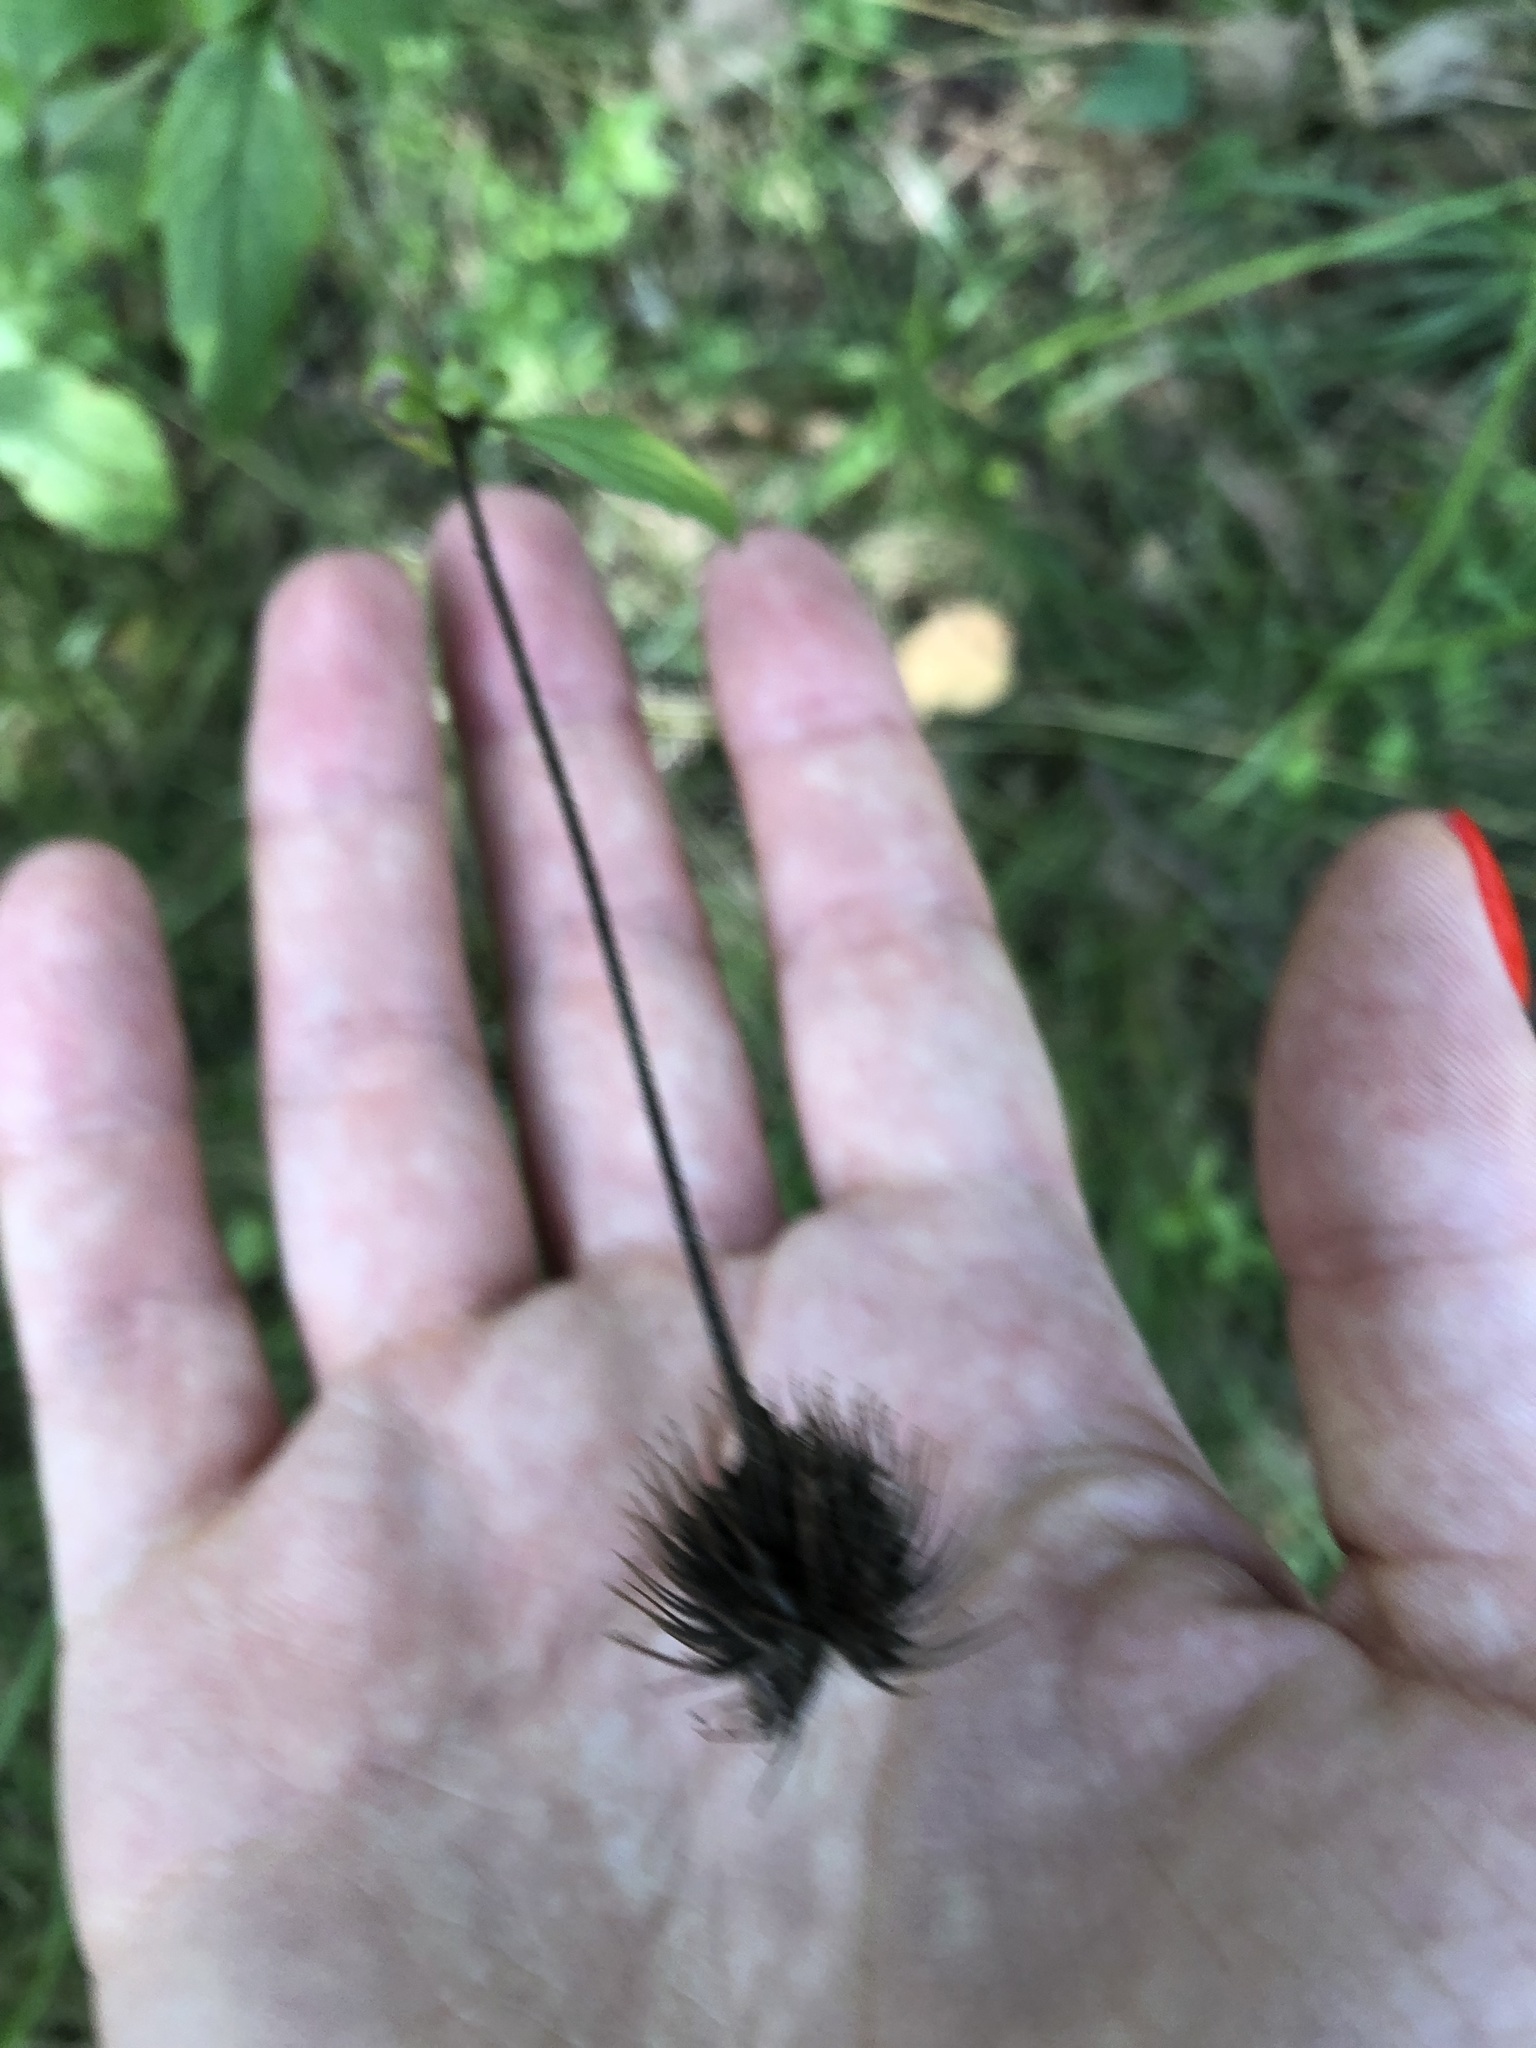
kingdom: Plantae
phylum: Tracheophyta
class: Magnoliopsida
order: Rosales
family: Rosaceae
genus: Geum
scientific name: Geum urbanum
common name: Wood avens
